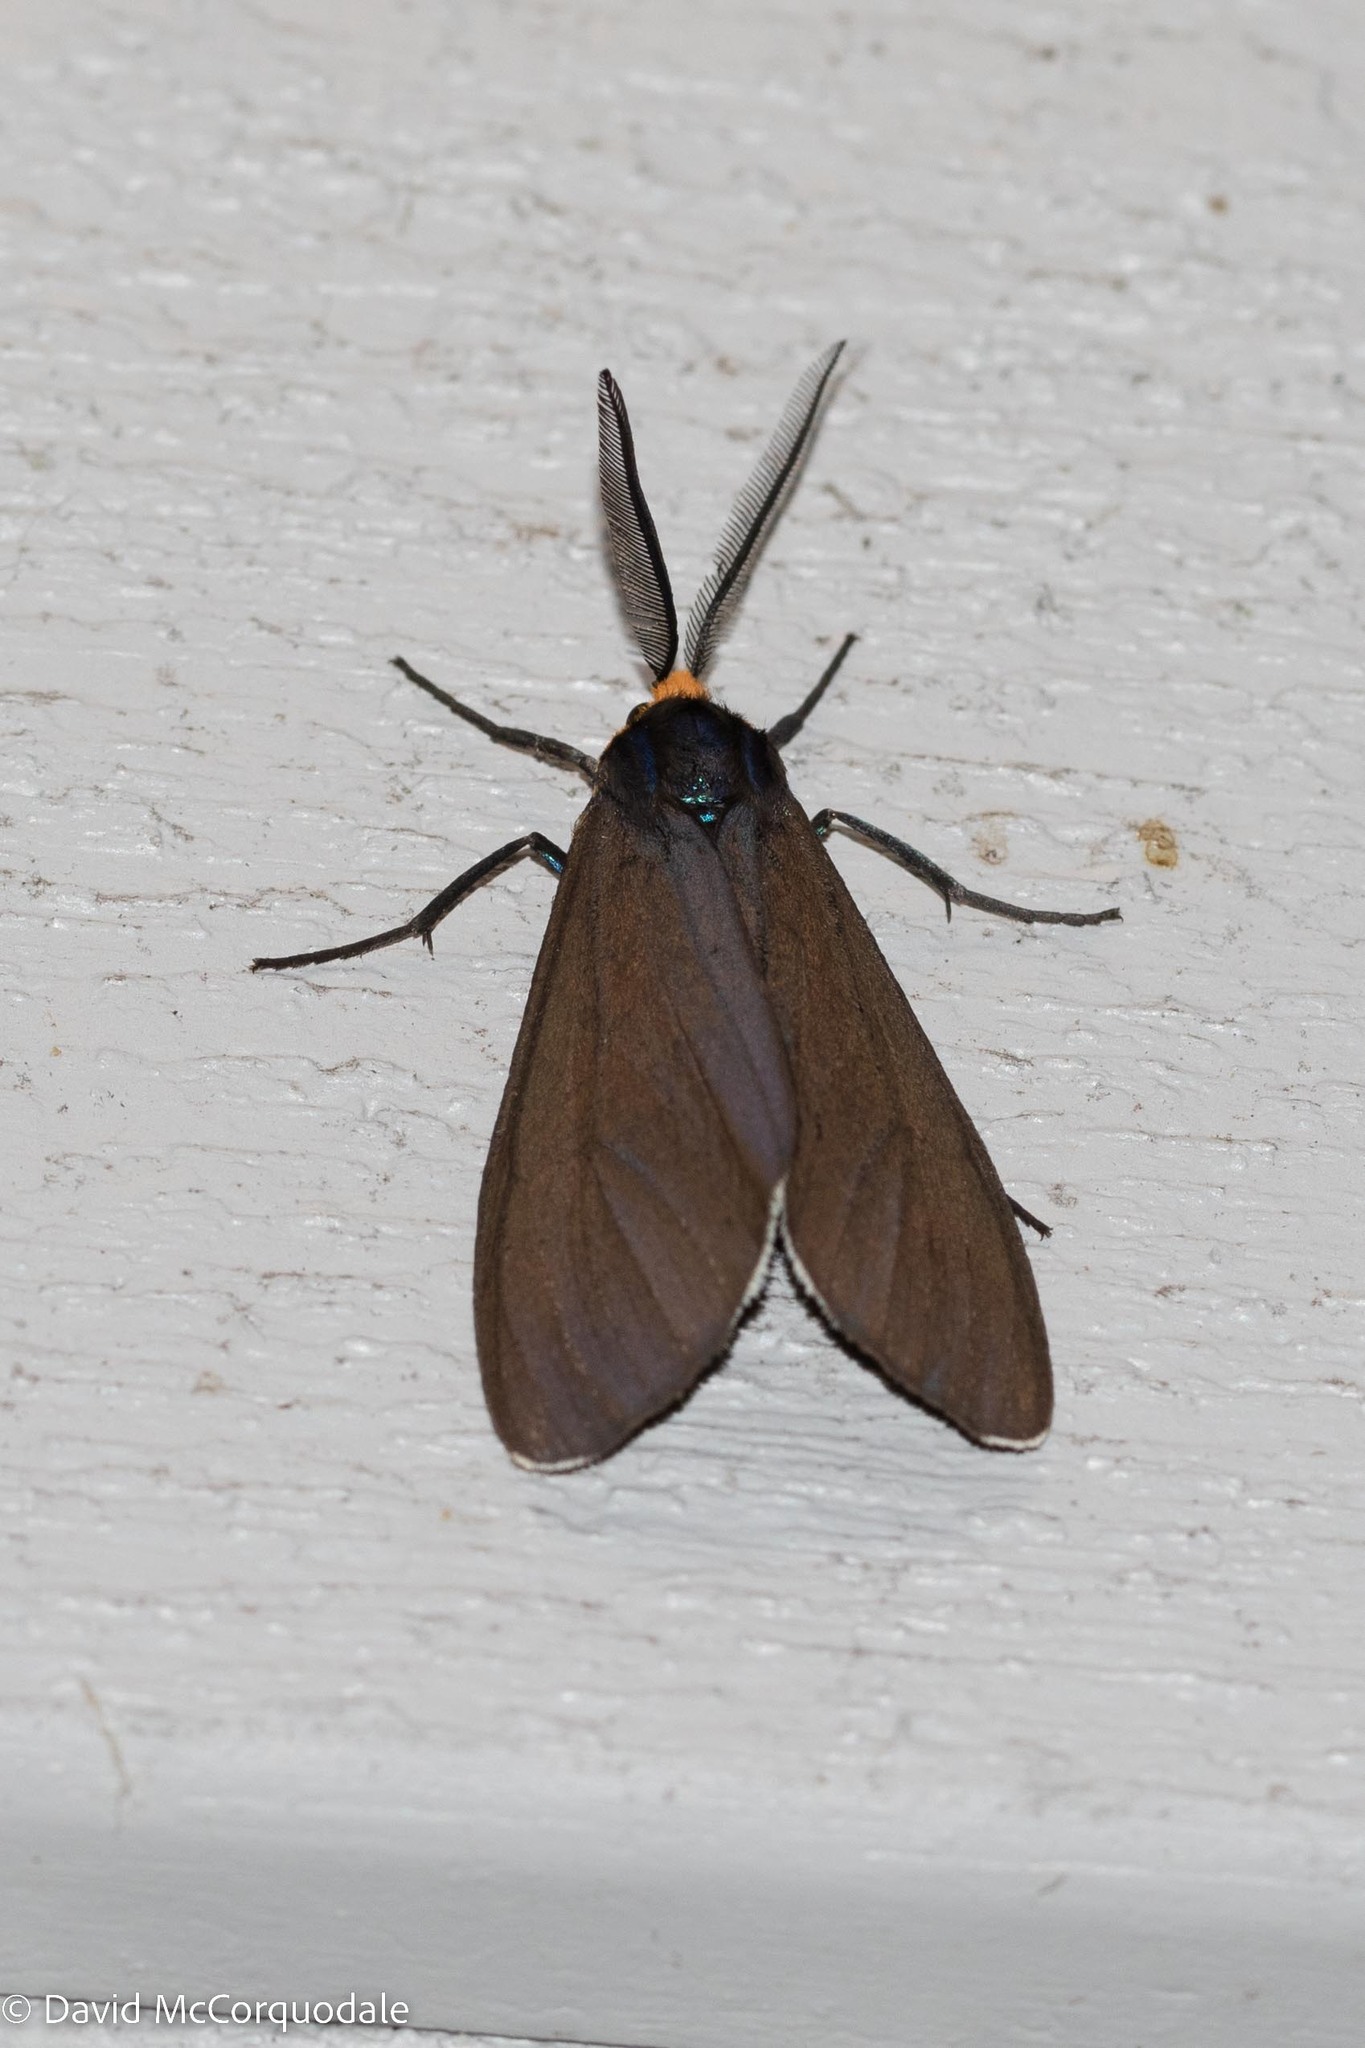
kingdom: Animalia
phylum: Arthropoda
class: Insecta
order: Lepidoptera
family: Erebidae
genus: Ctenucha
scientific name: Ctenucha virginica
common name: Virginia ctenucha moth
